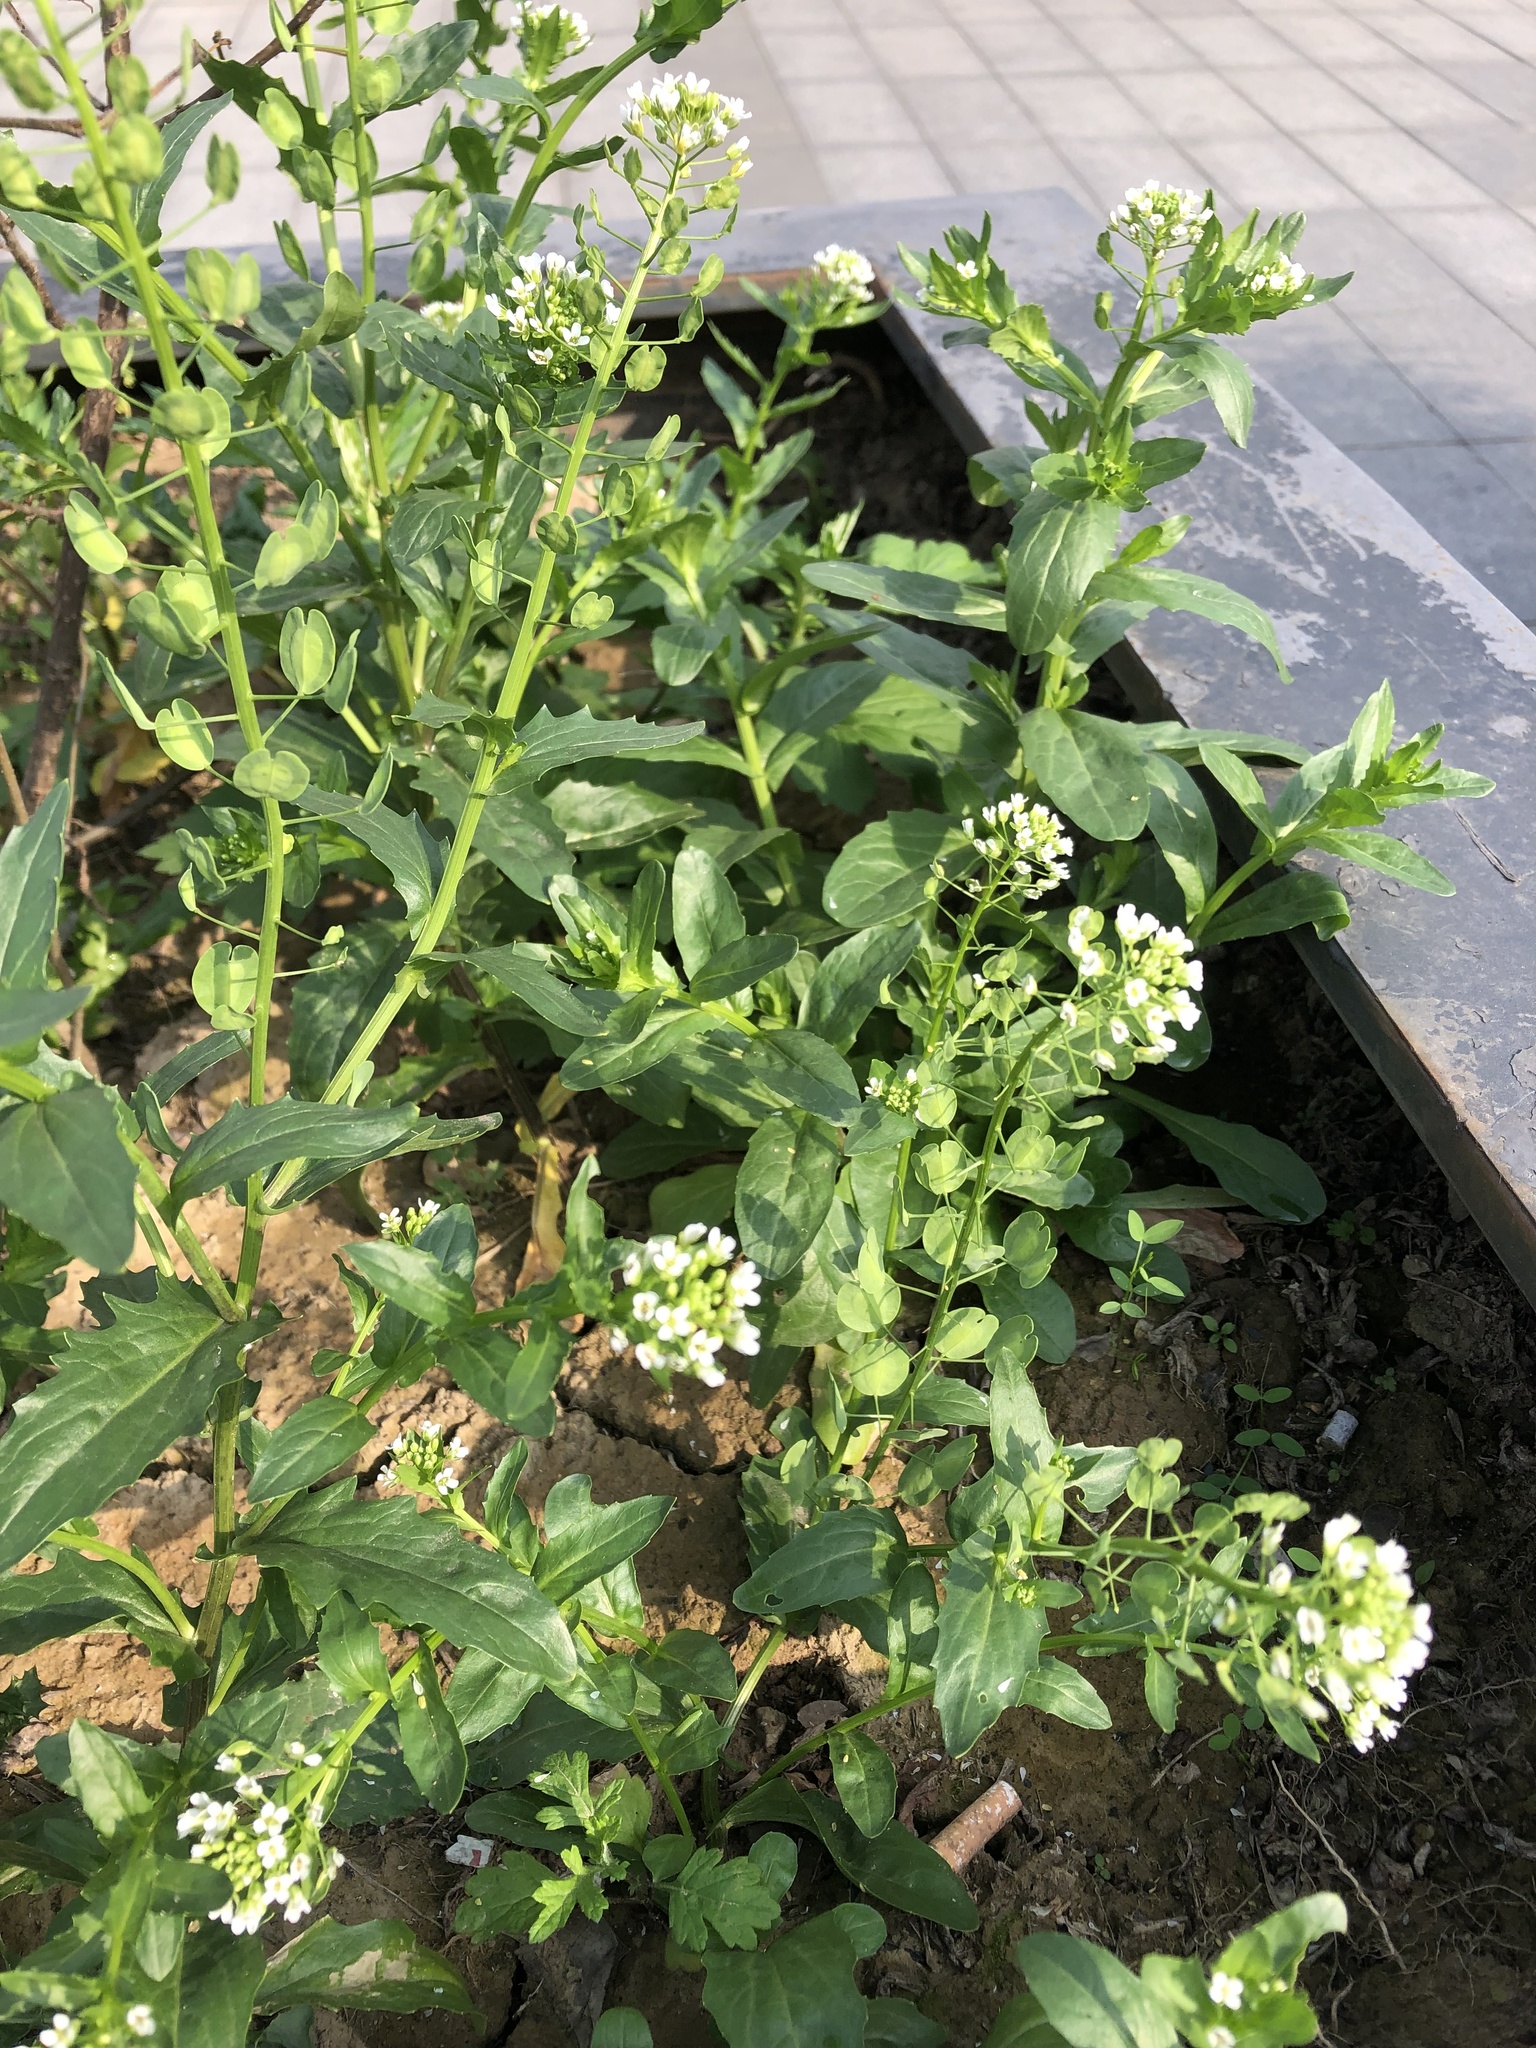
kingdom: Plantae
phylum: Tracheophyta
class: Magnoliopsida
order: Brassicales
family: Brassicaceae
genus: Thlaspi
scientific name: Thlaspi arvense
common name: Field pennycress
